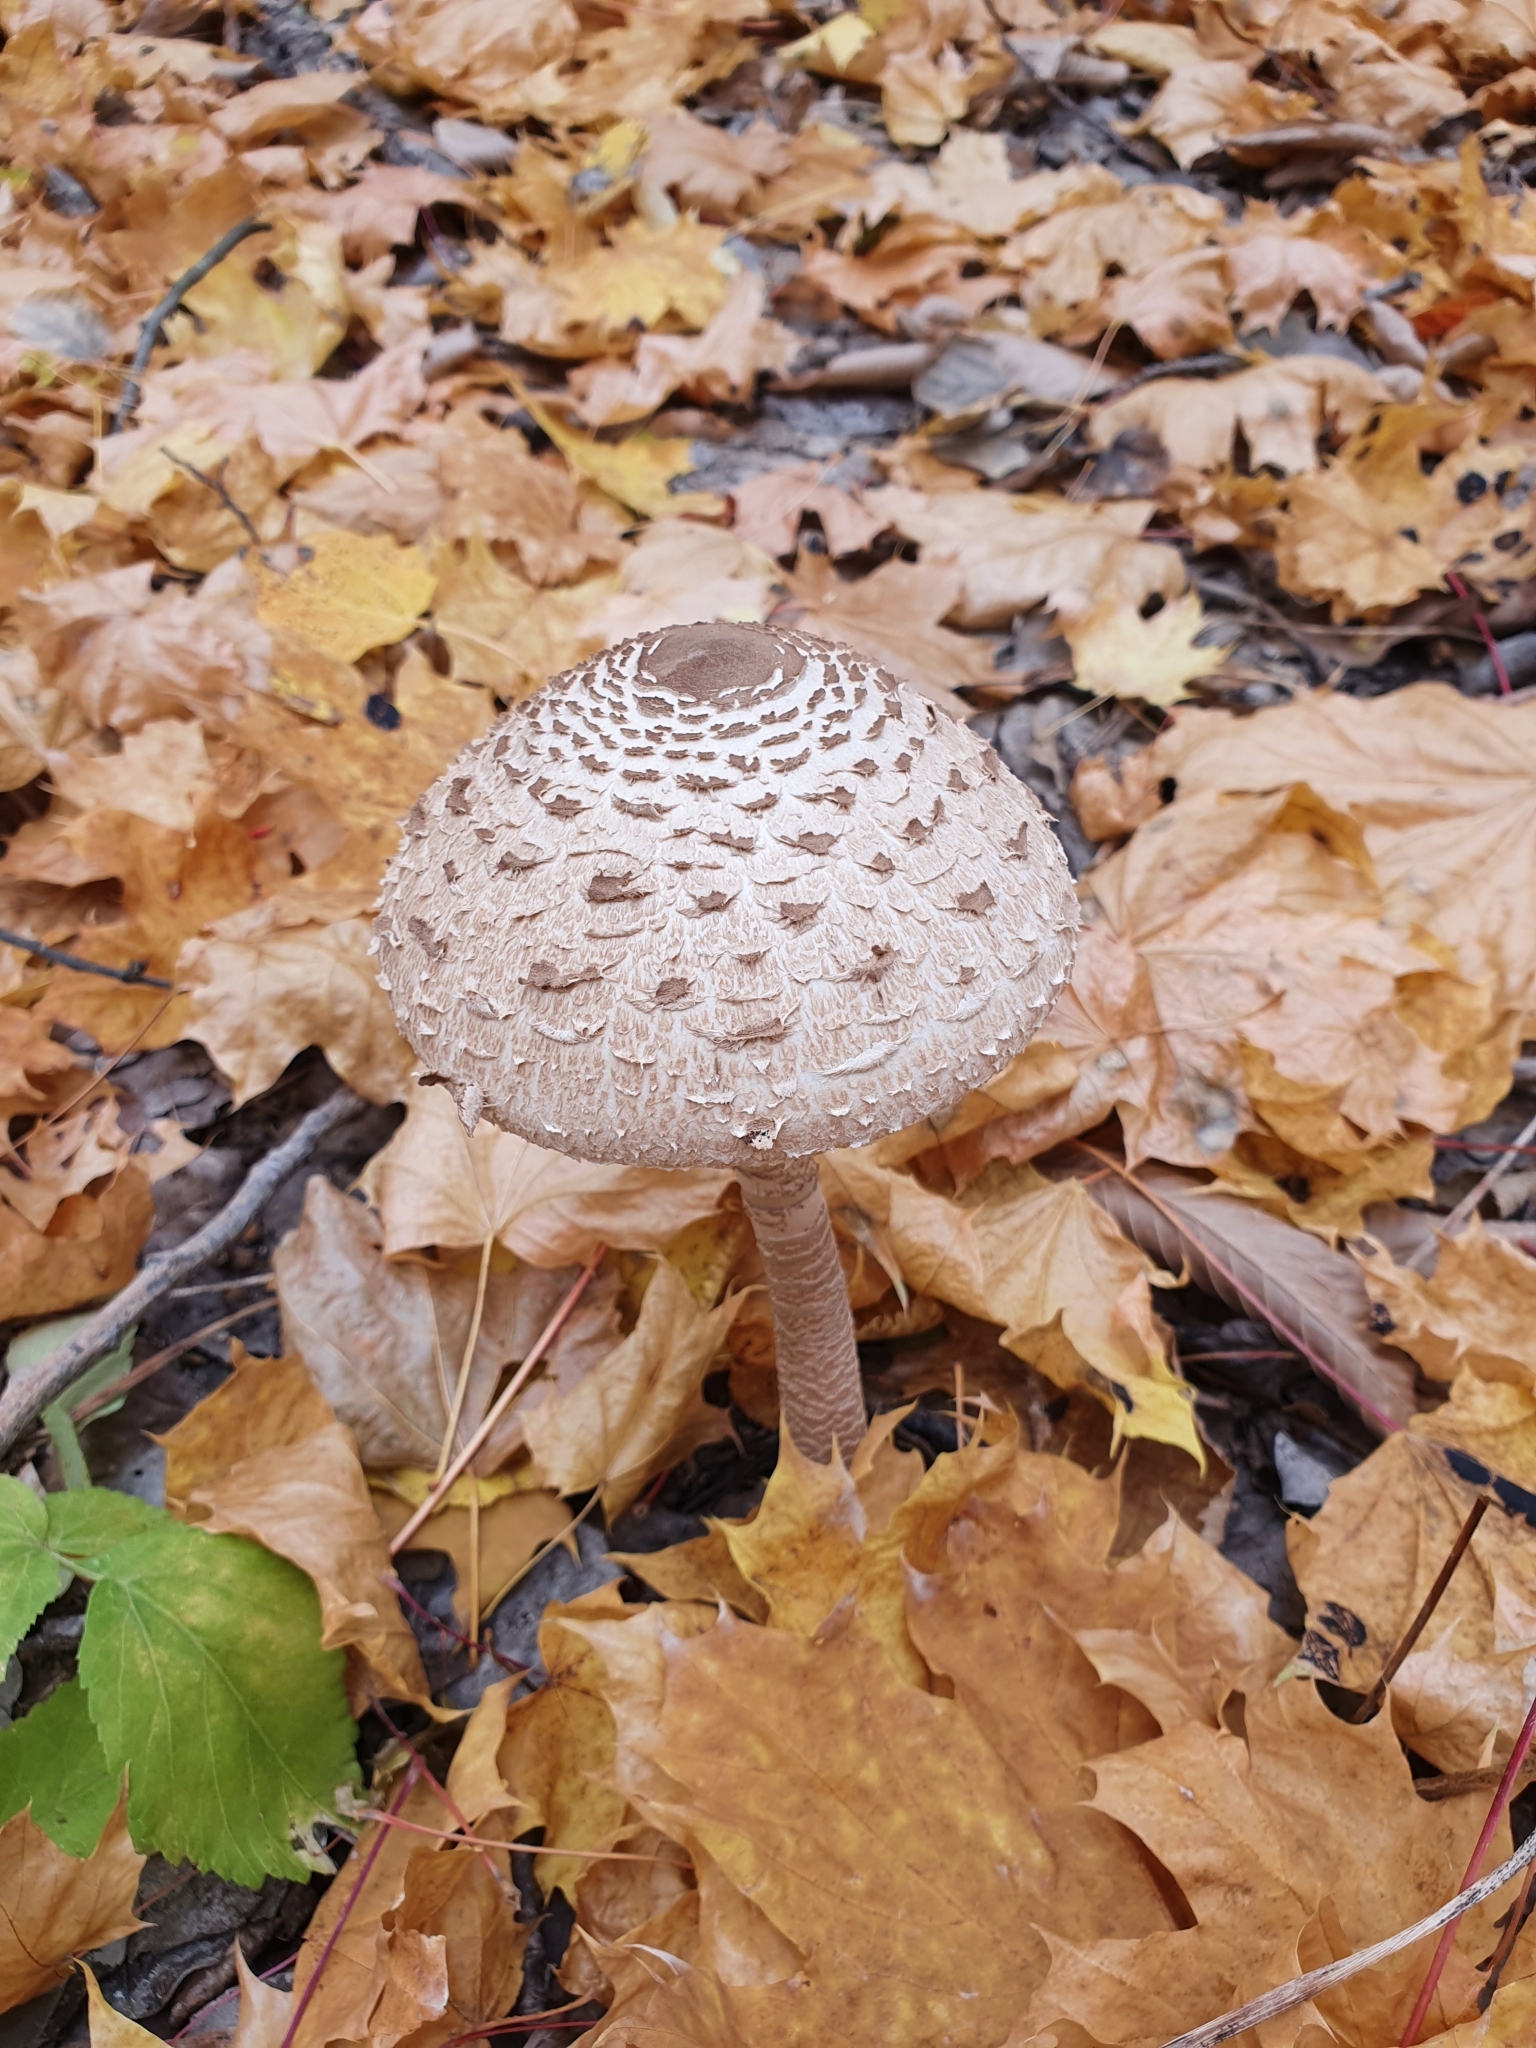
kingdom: Fungi
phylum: Basidiomycota
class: Agaricomycetes
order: Agaricales
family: Agaricaceae
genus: Macrolepiota
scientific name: Macrolepiota procera
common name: Parasol
